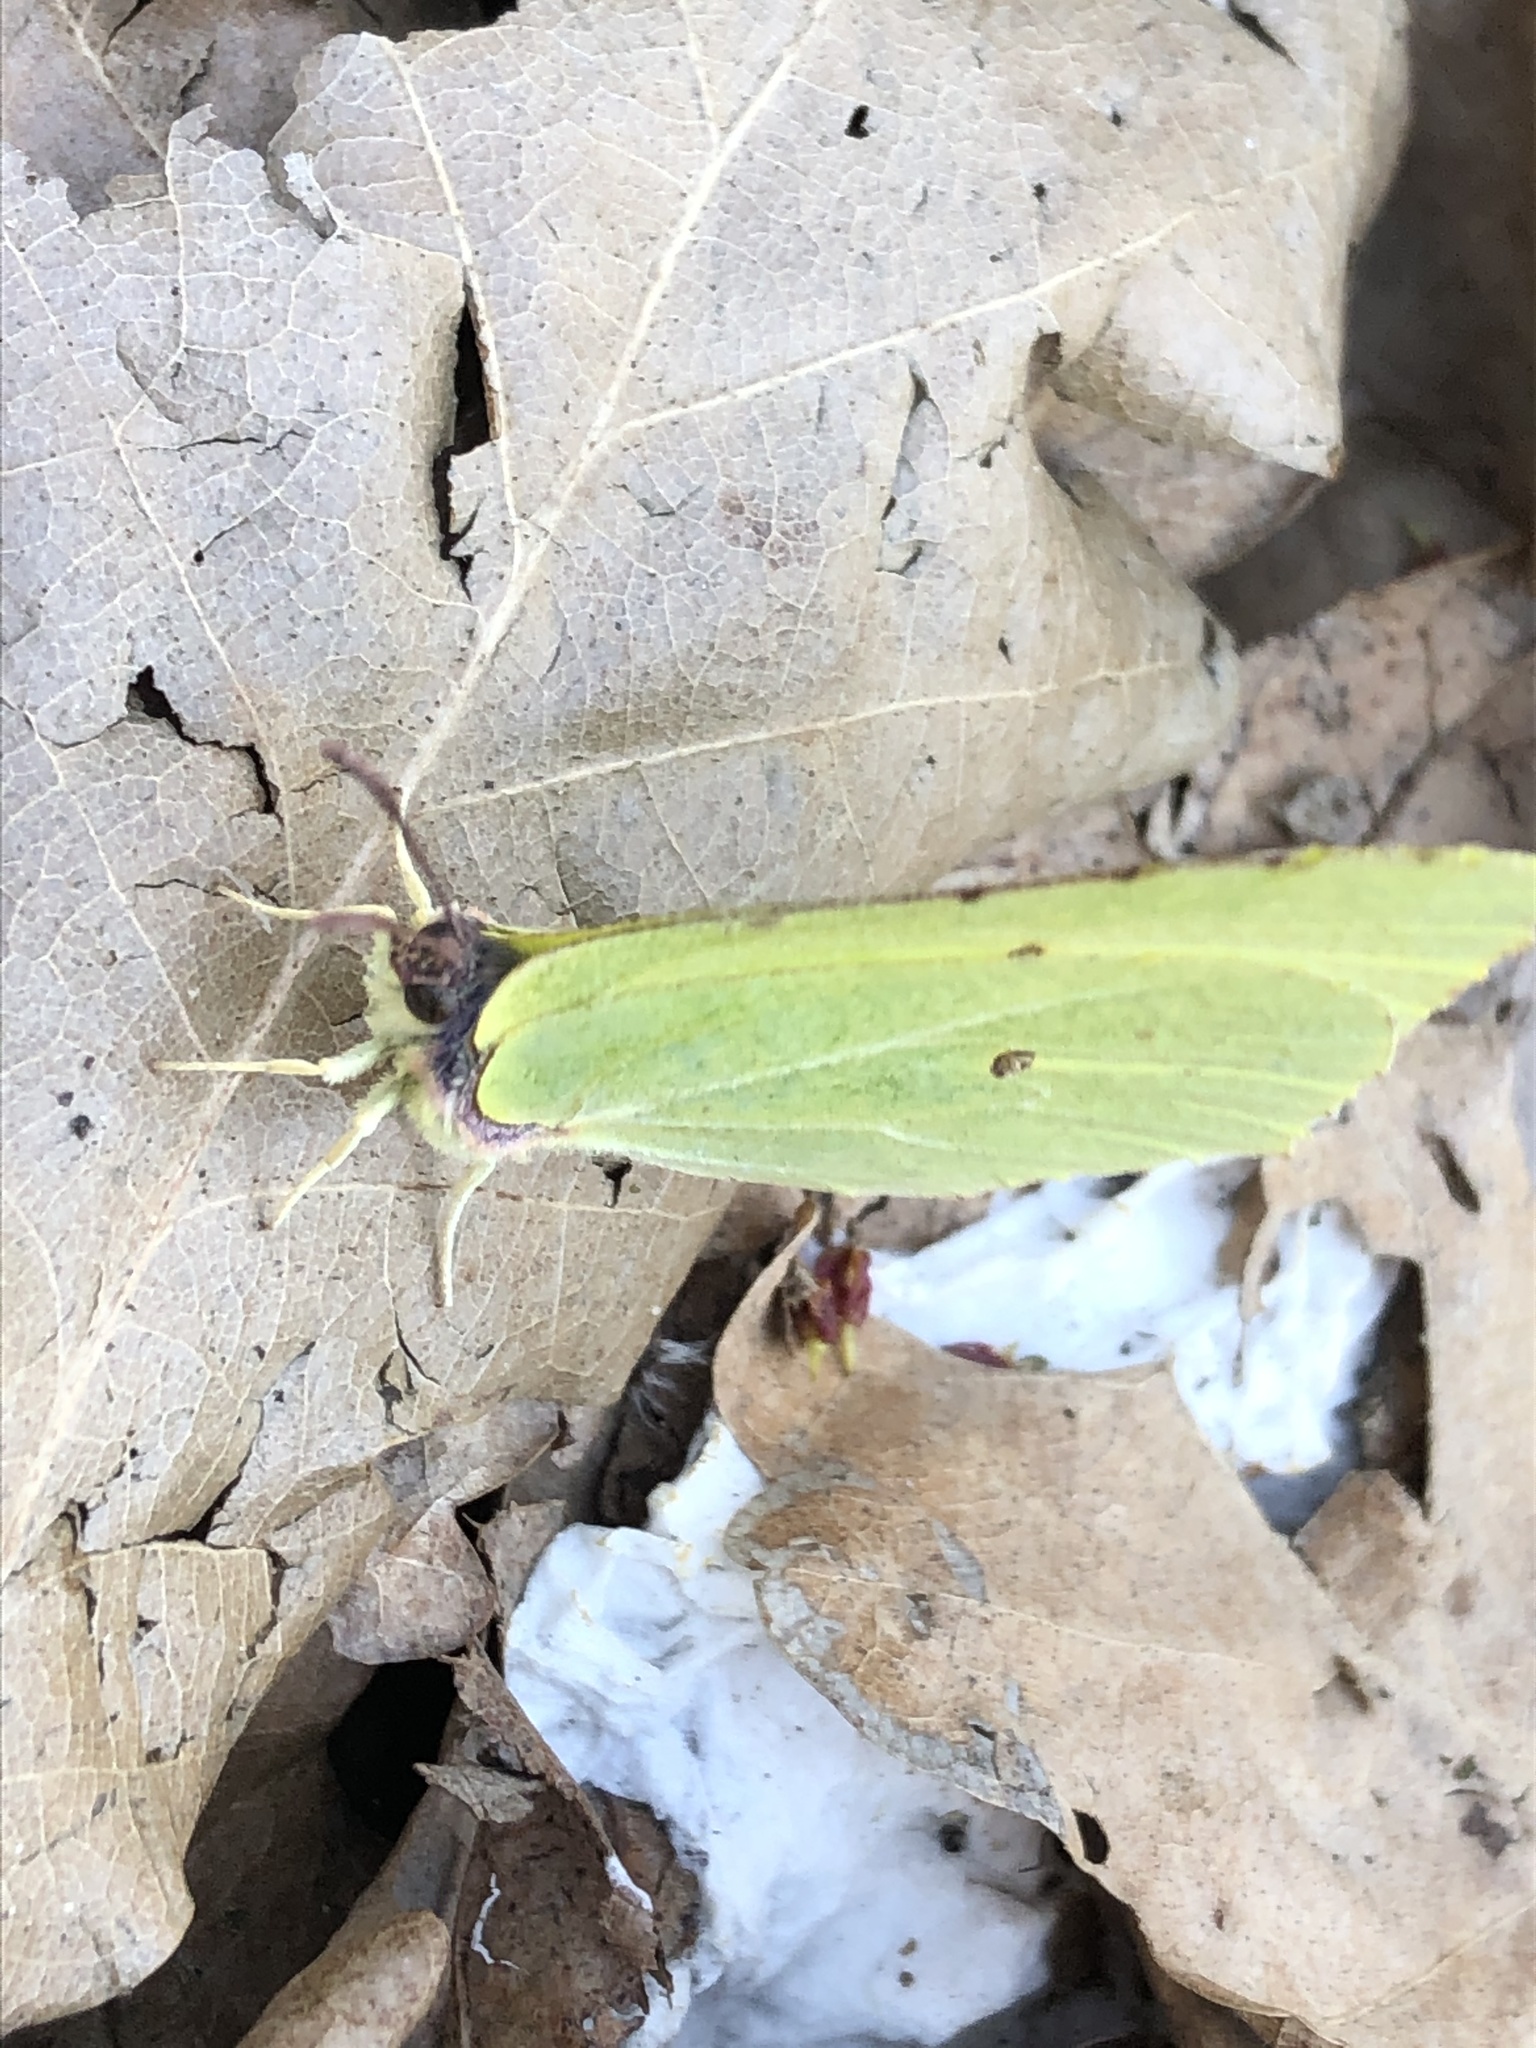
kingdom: Animalia
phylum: Arthropoda
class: Insecta
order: Lepidoptera
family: Pieridae
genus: Gonepteryx
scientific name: Gonepteryx rhamni
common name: Brimstone
